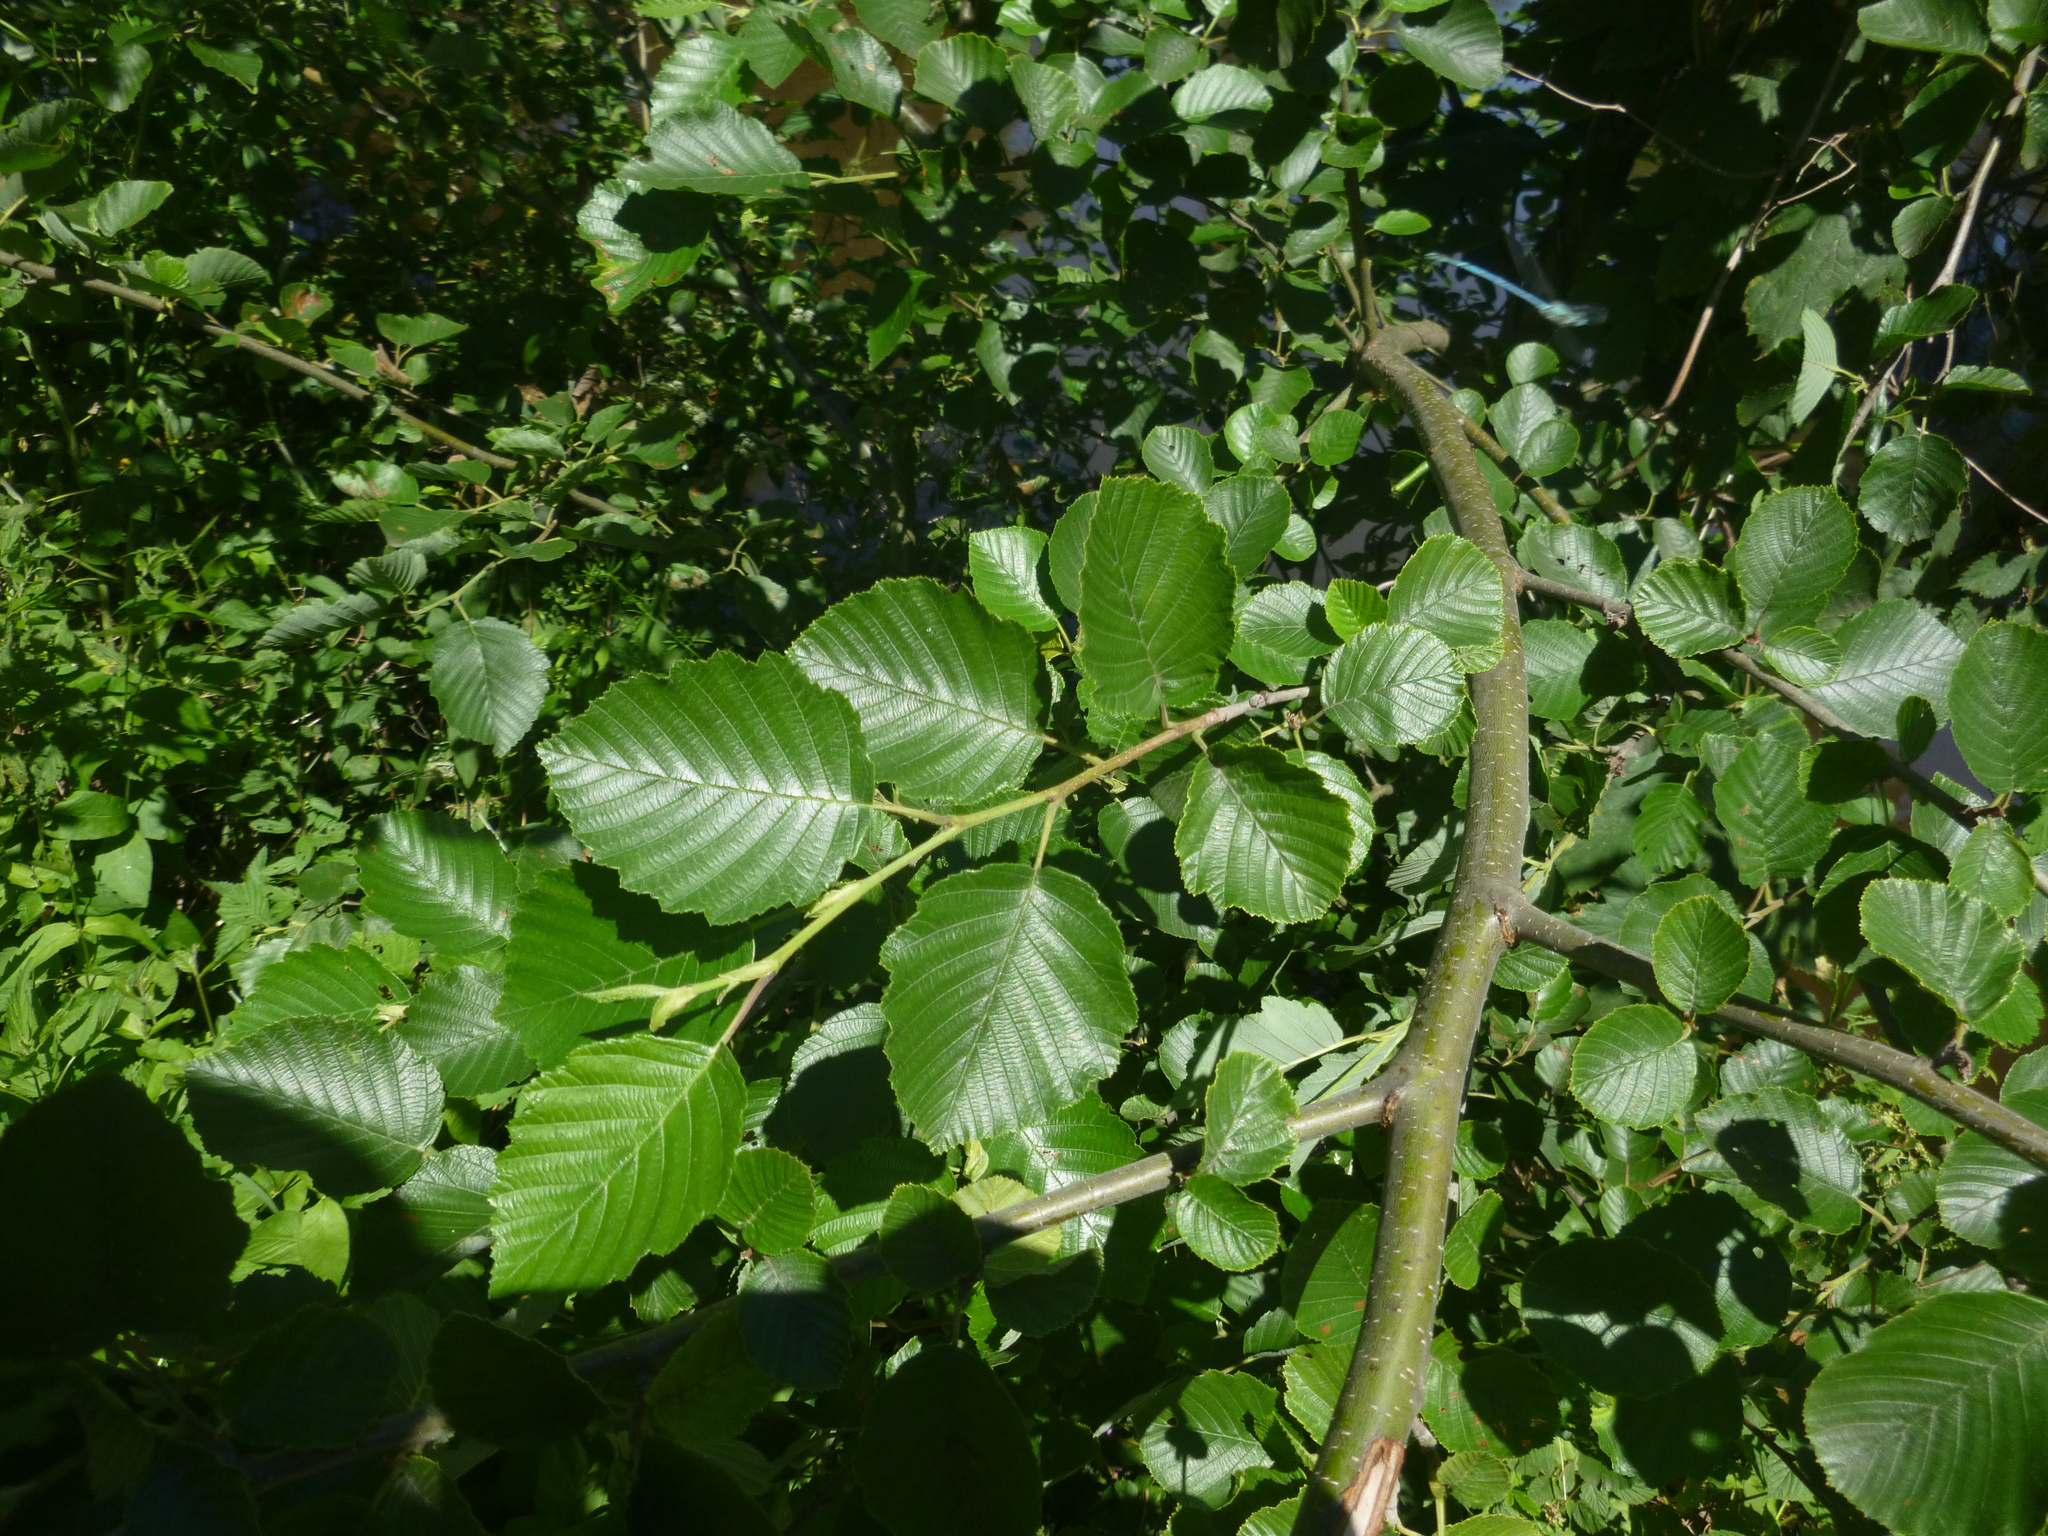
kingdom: Plantae
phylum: Tracheophyta
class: Magnoliopsida
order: Fagales
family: Betulaceae
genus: Alnus
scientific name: Alnus incana
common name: Grey alder
